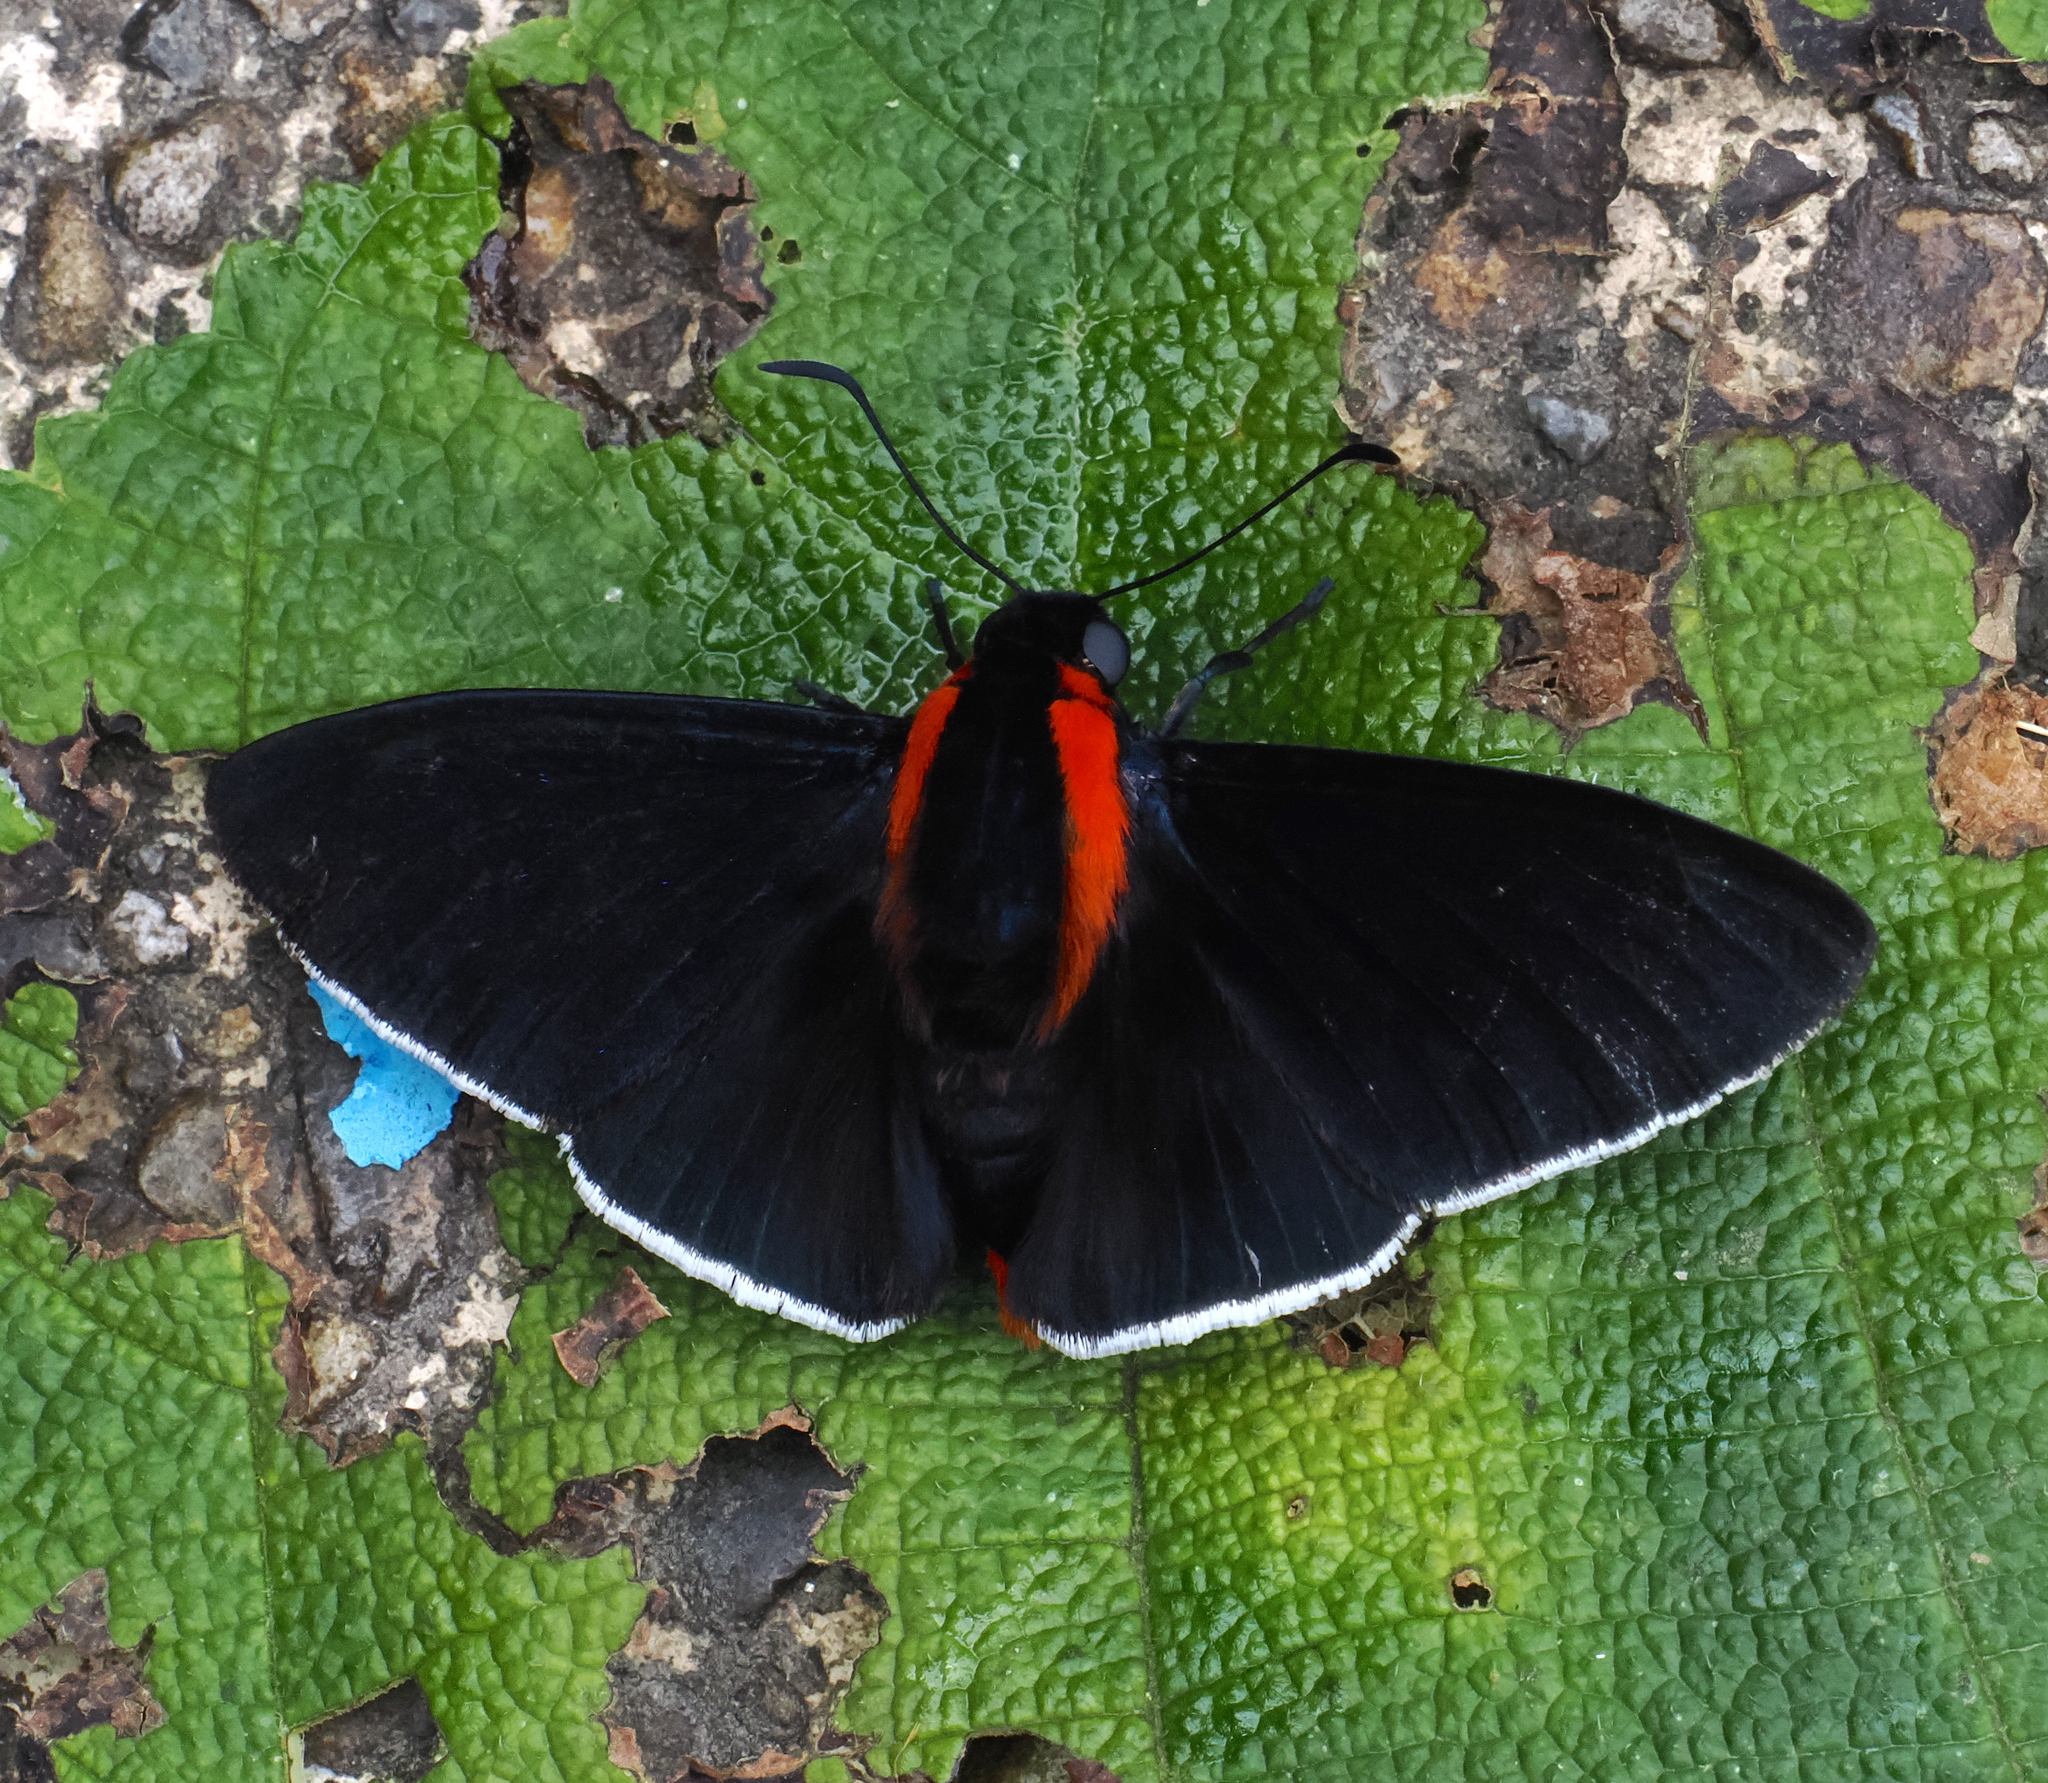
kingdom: Animalia
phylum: Arthropoda
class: Insecta
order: Lepidoptera
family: Hesperiidae
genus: Pyrrhopyge
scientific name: Pyrrhopyge papius
